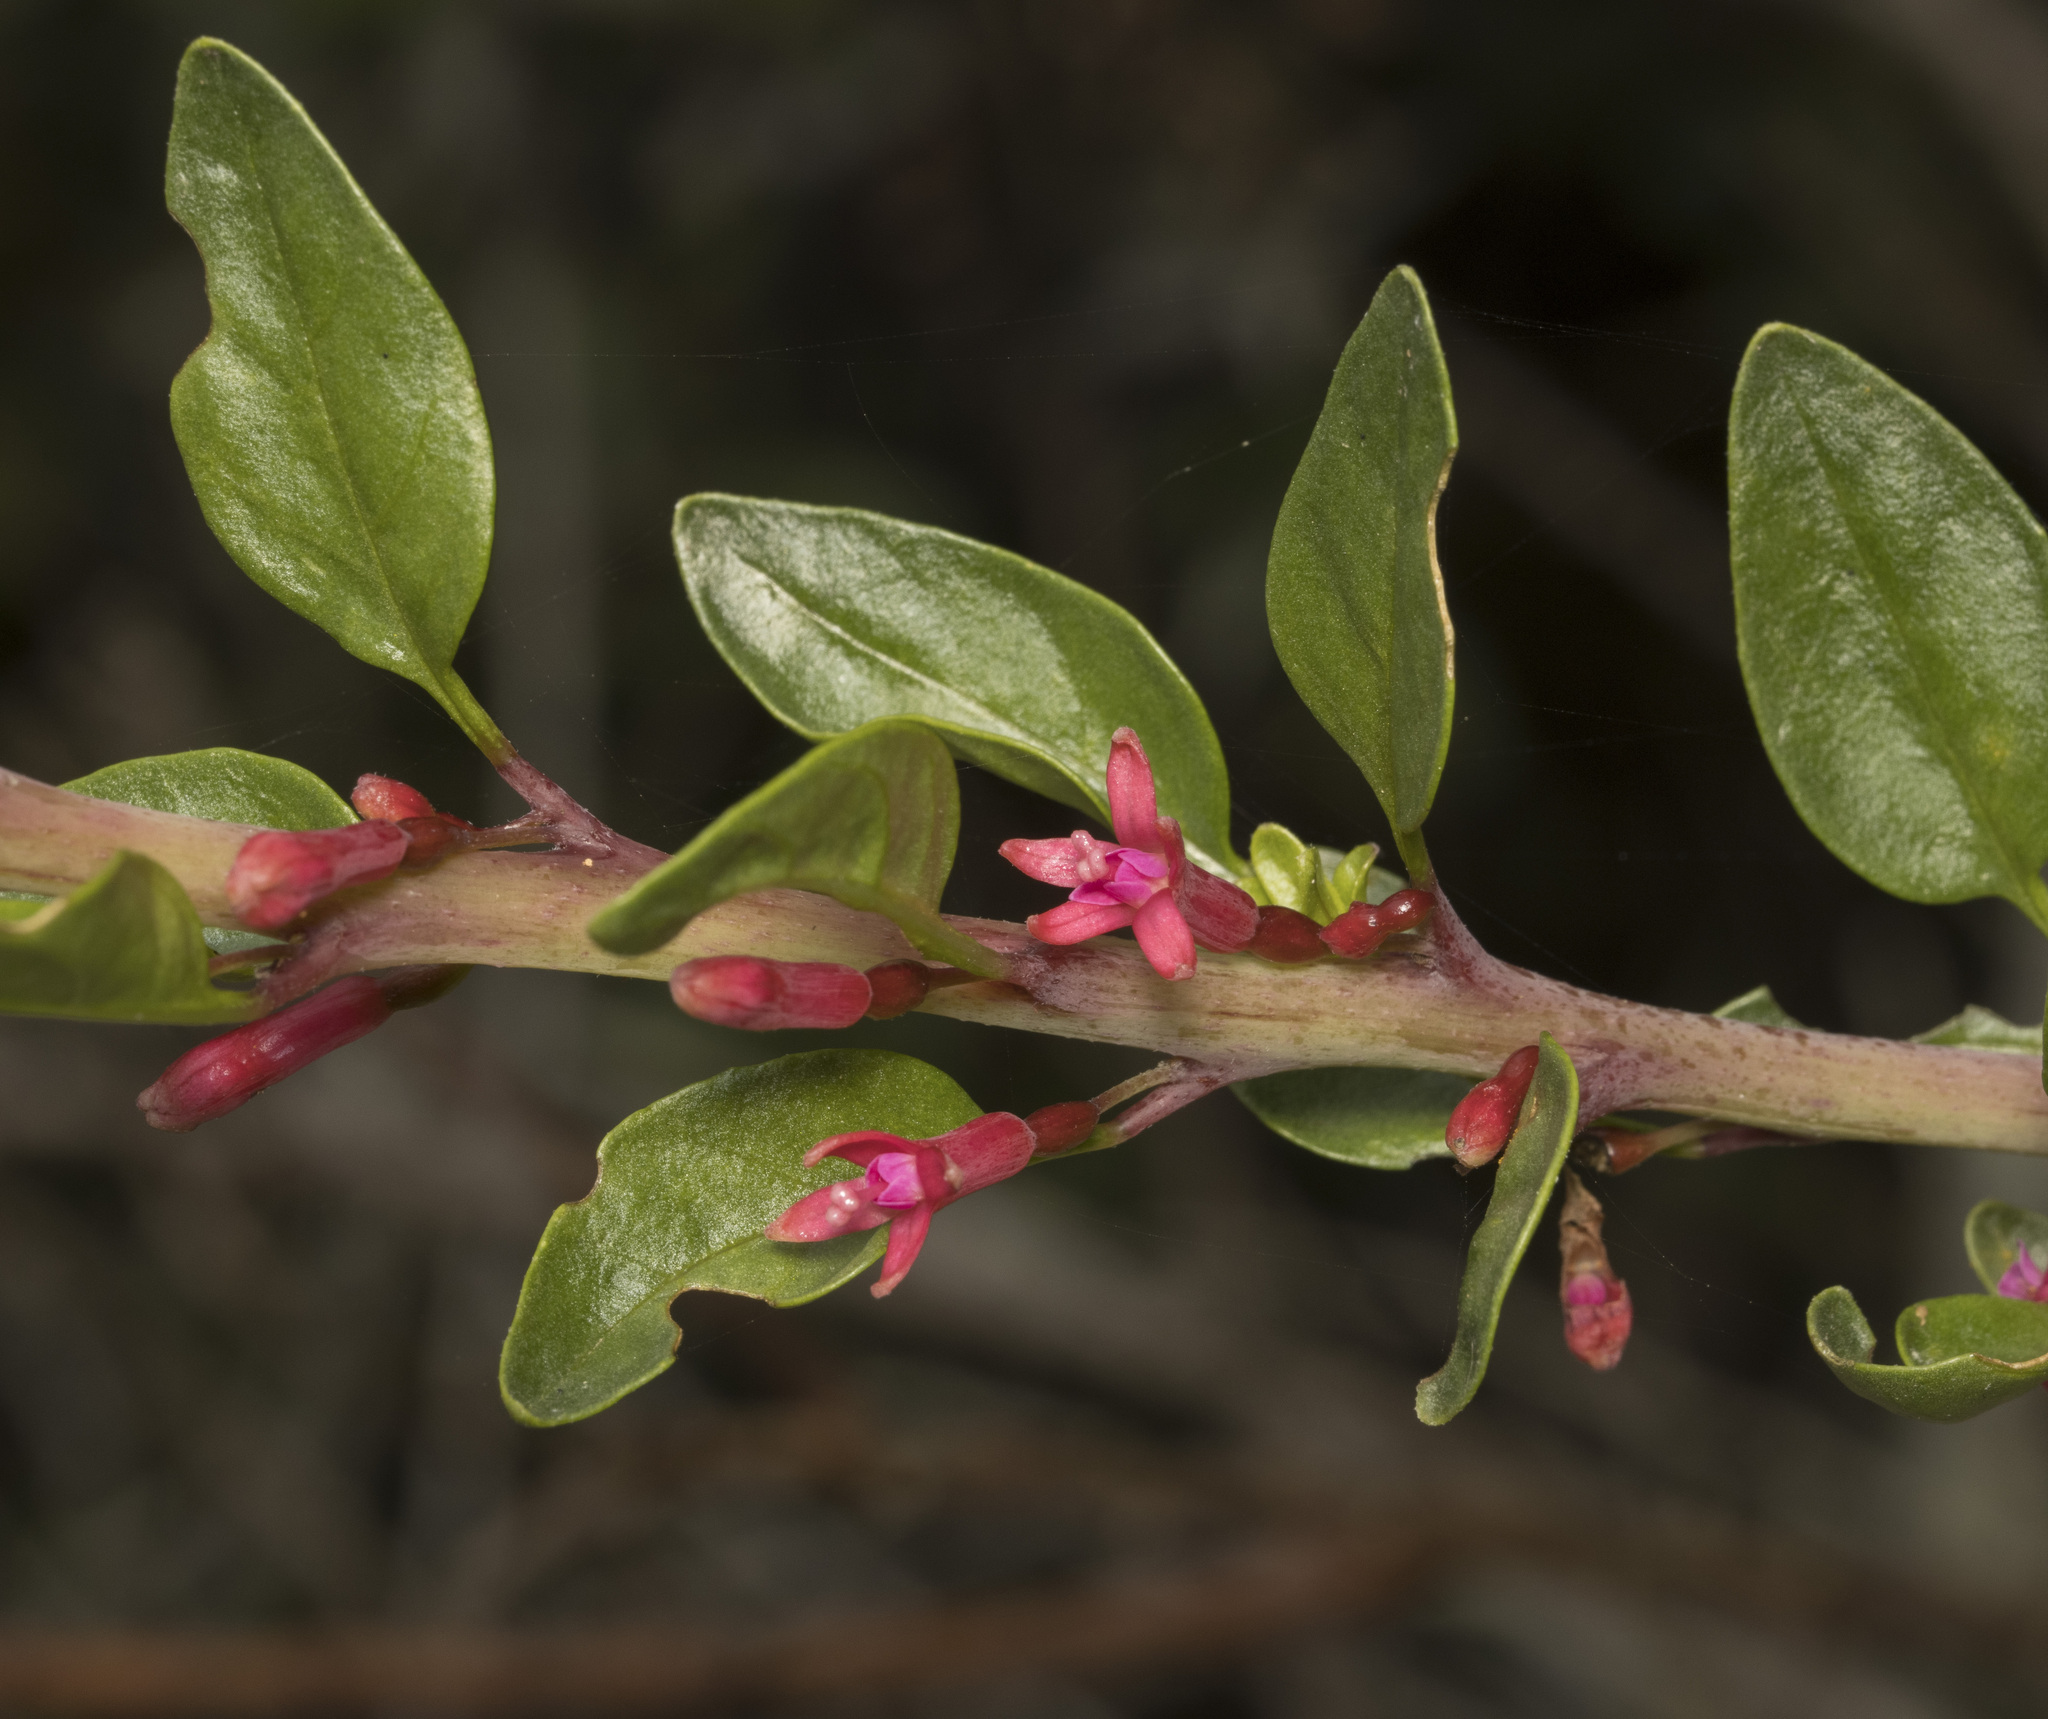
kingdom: Plantae
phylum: Tracheophyta
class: Magnoliopsida
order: Myrtales
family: Onagraceae
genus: Fuchsia
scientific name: Fuchsia lycioides
